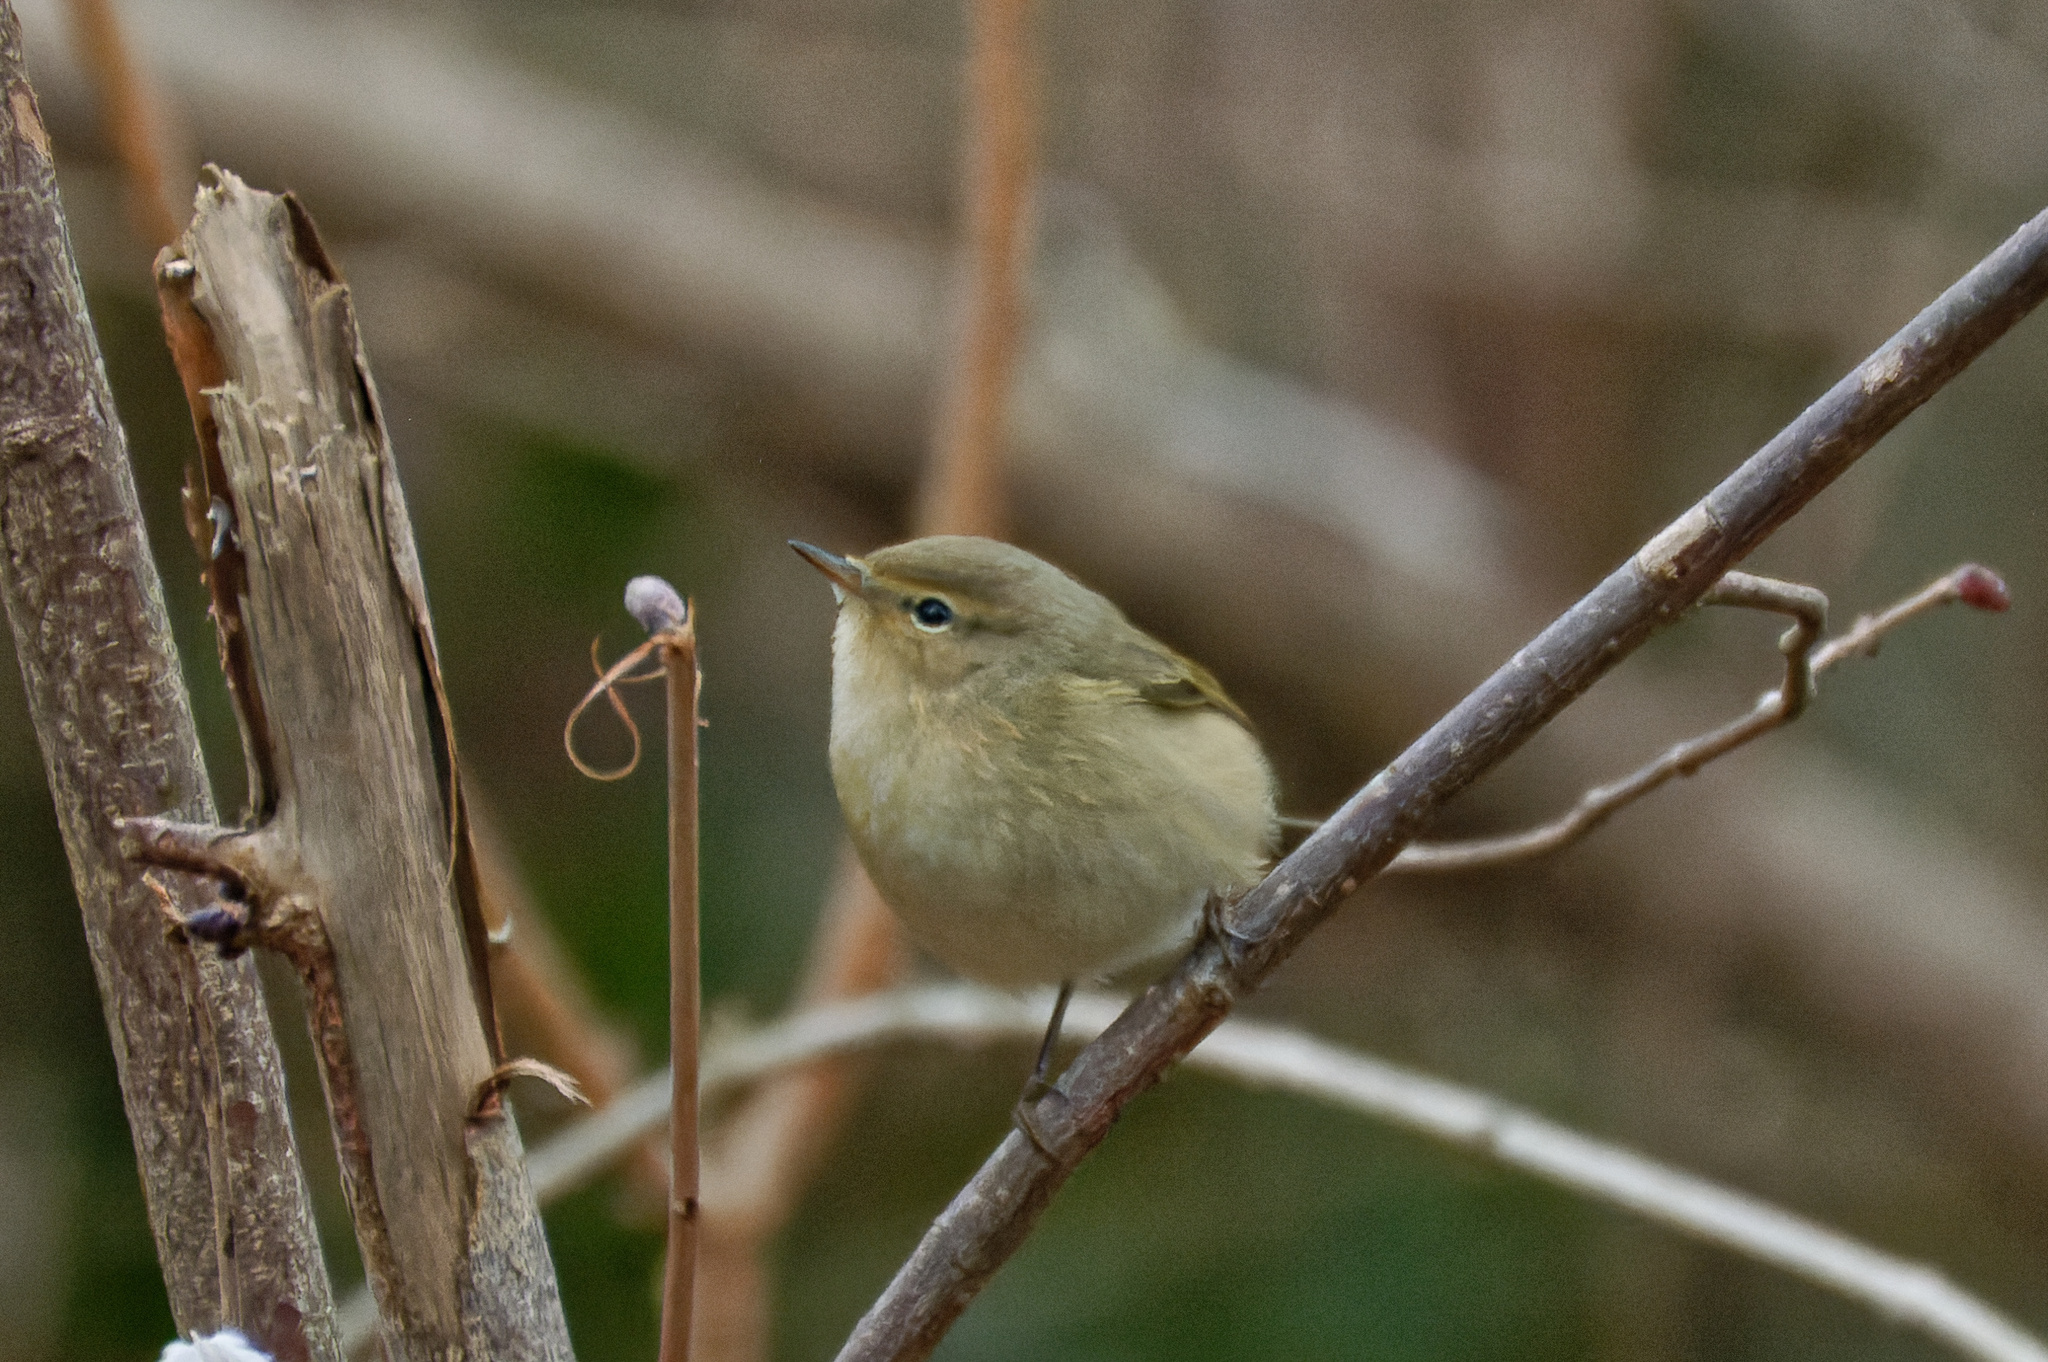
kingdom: Animalia
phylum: Chordata
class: Aves
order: Passeriformes
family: Phylloscopidae
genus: Phylloscopus
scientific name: Phylloscopus collybita
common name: Common chiffchaff
